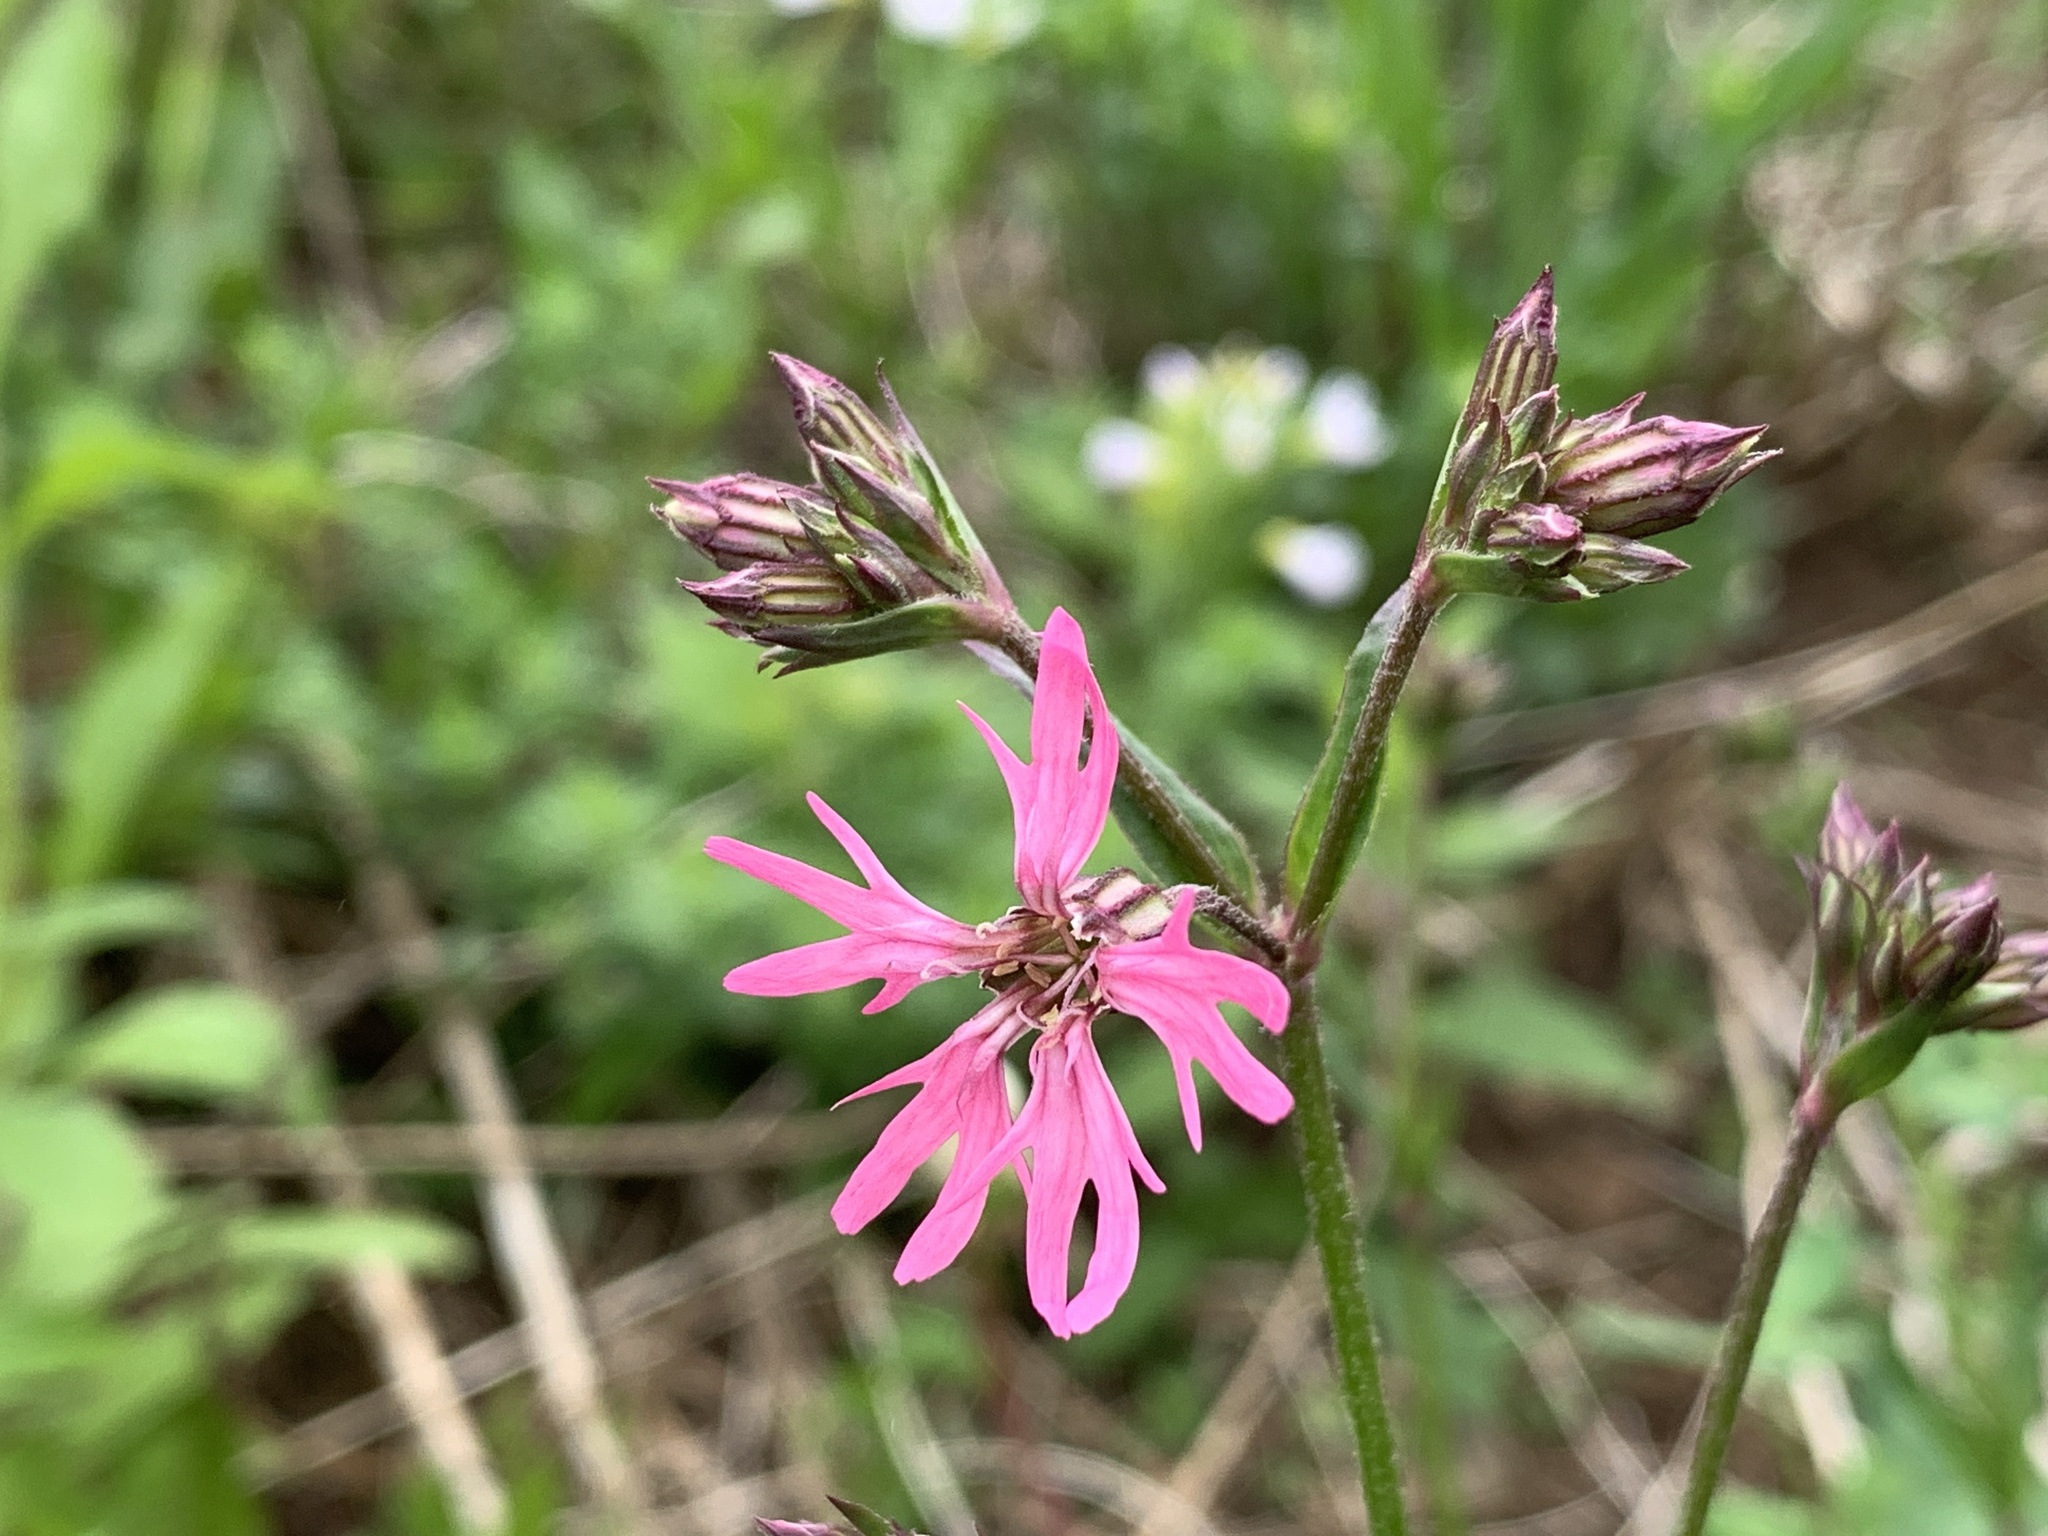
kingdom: Plantae
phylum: Tracheophyta
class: Magnoliopsida
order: Caryophyllales
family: Caryophyllaceae
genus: Silene
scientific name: Silene flos-cuculi
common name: Ragged-robin
